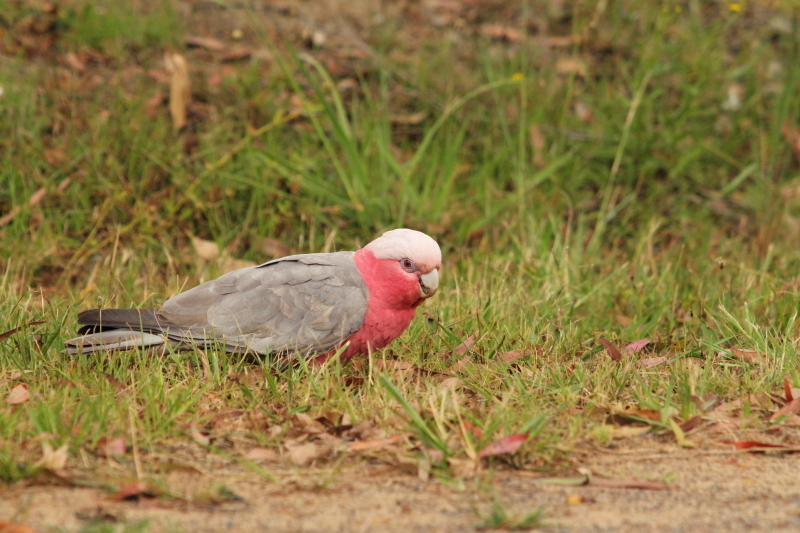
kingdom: Animalia
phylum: Chordata
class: Aves
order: Psittaciformes
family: Psittacidae
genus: Eolophus
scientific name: Eolophus roseicapilla
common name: Galah
